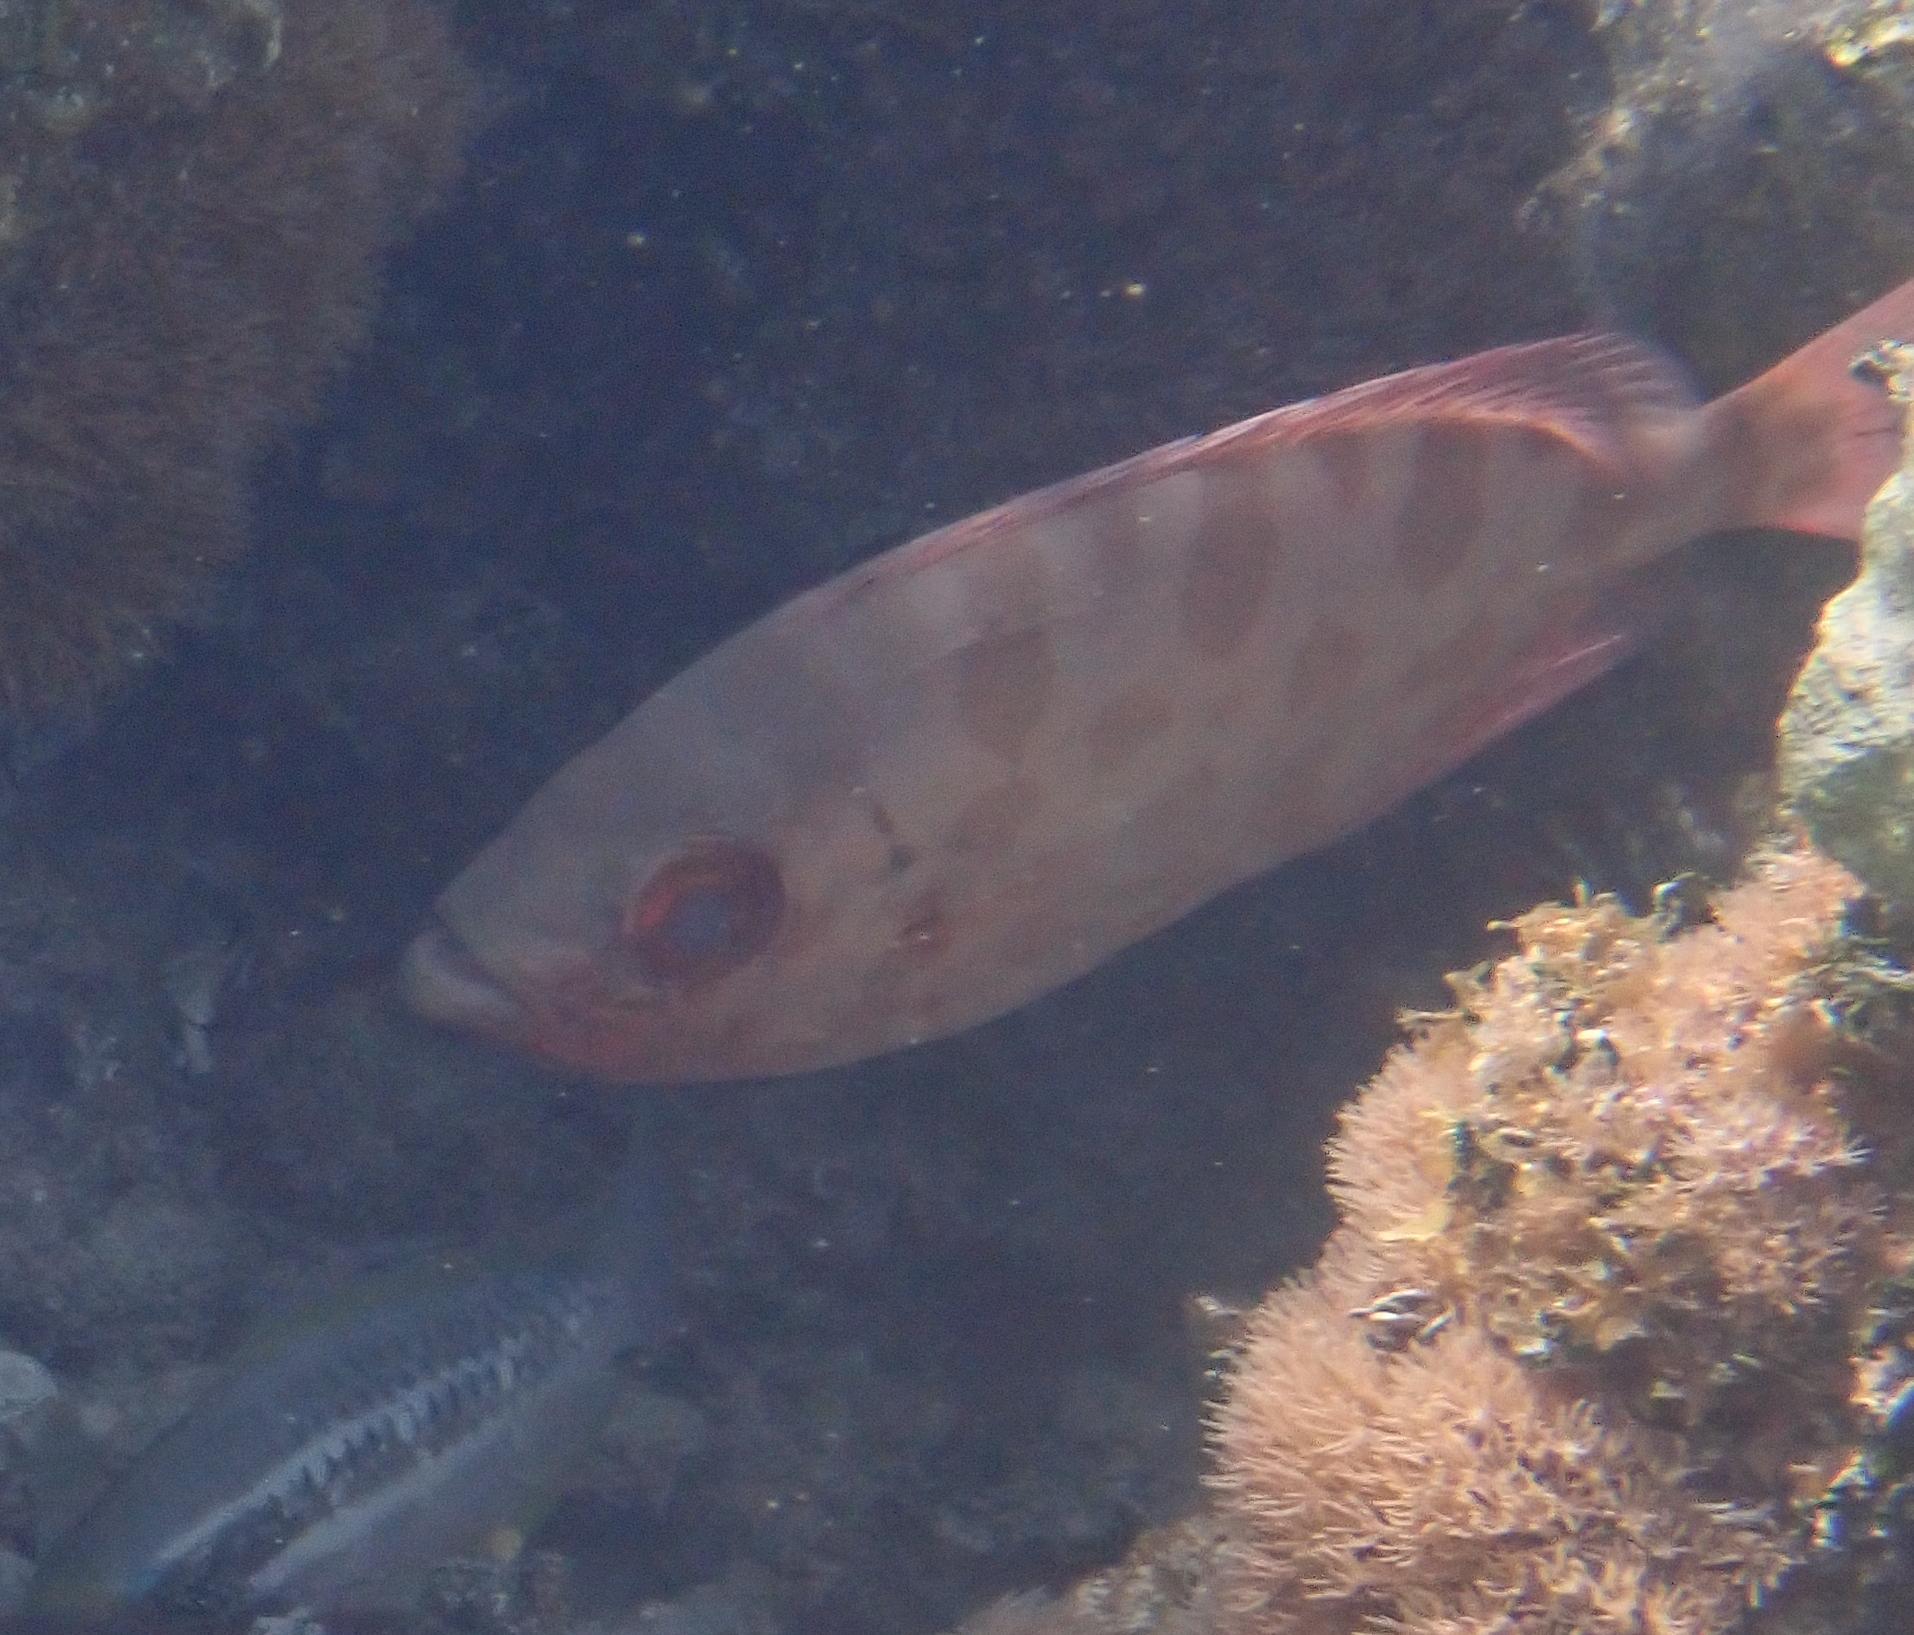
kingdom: Animalia
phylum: Chordata
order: Perciformes
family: Priacanthidae
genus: Heteropriacanthus
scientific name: Heteropriacanthus cruentatus
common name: Glasseye
